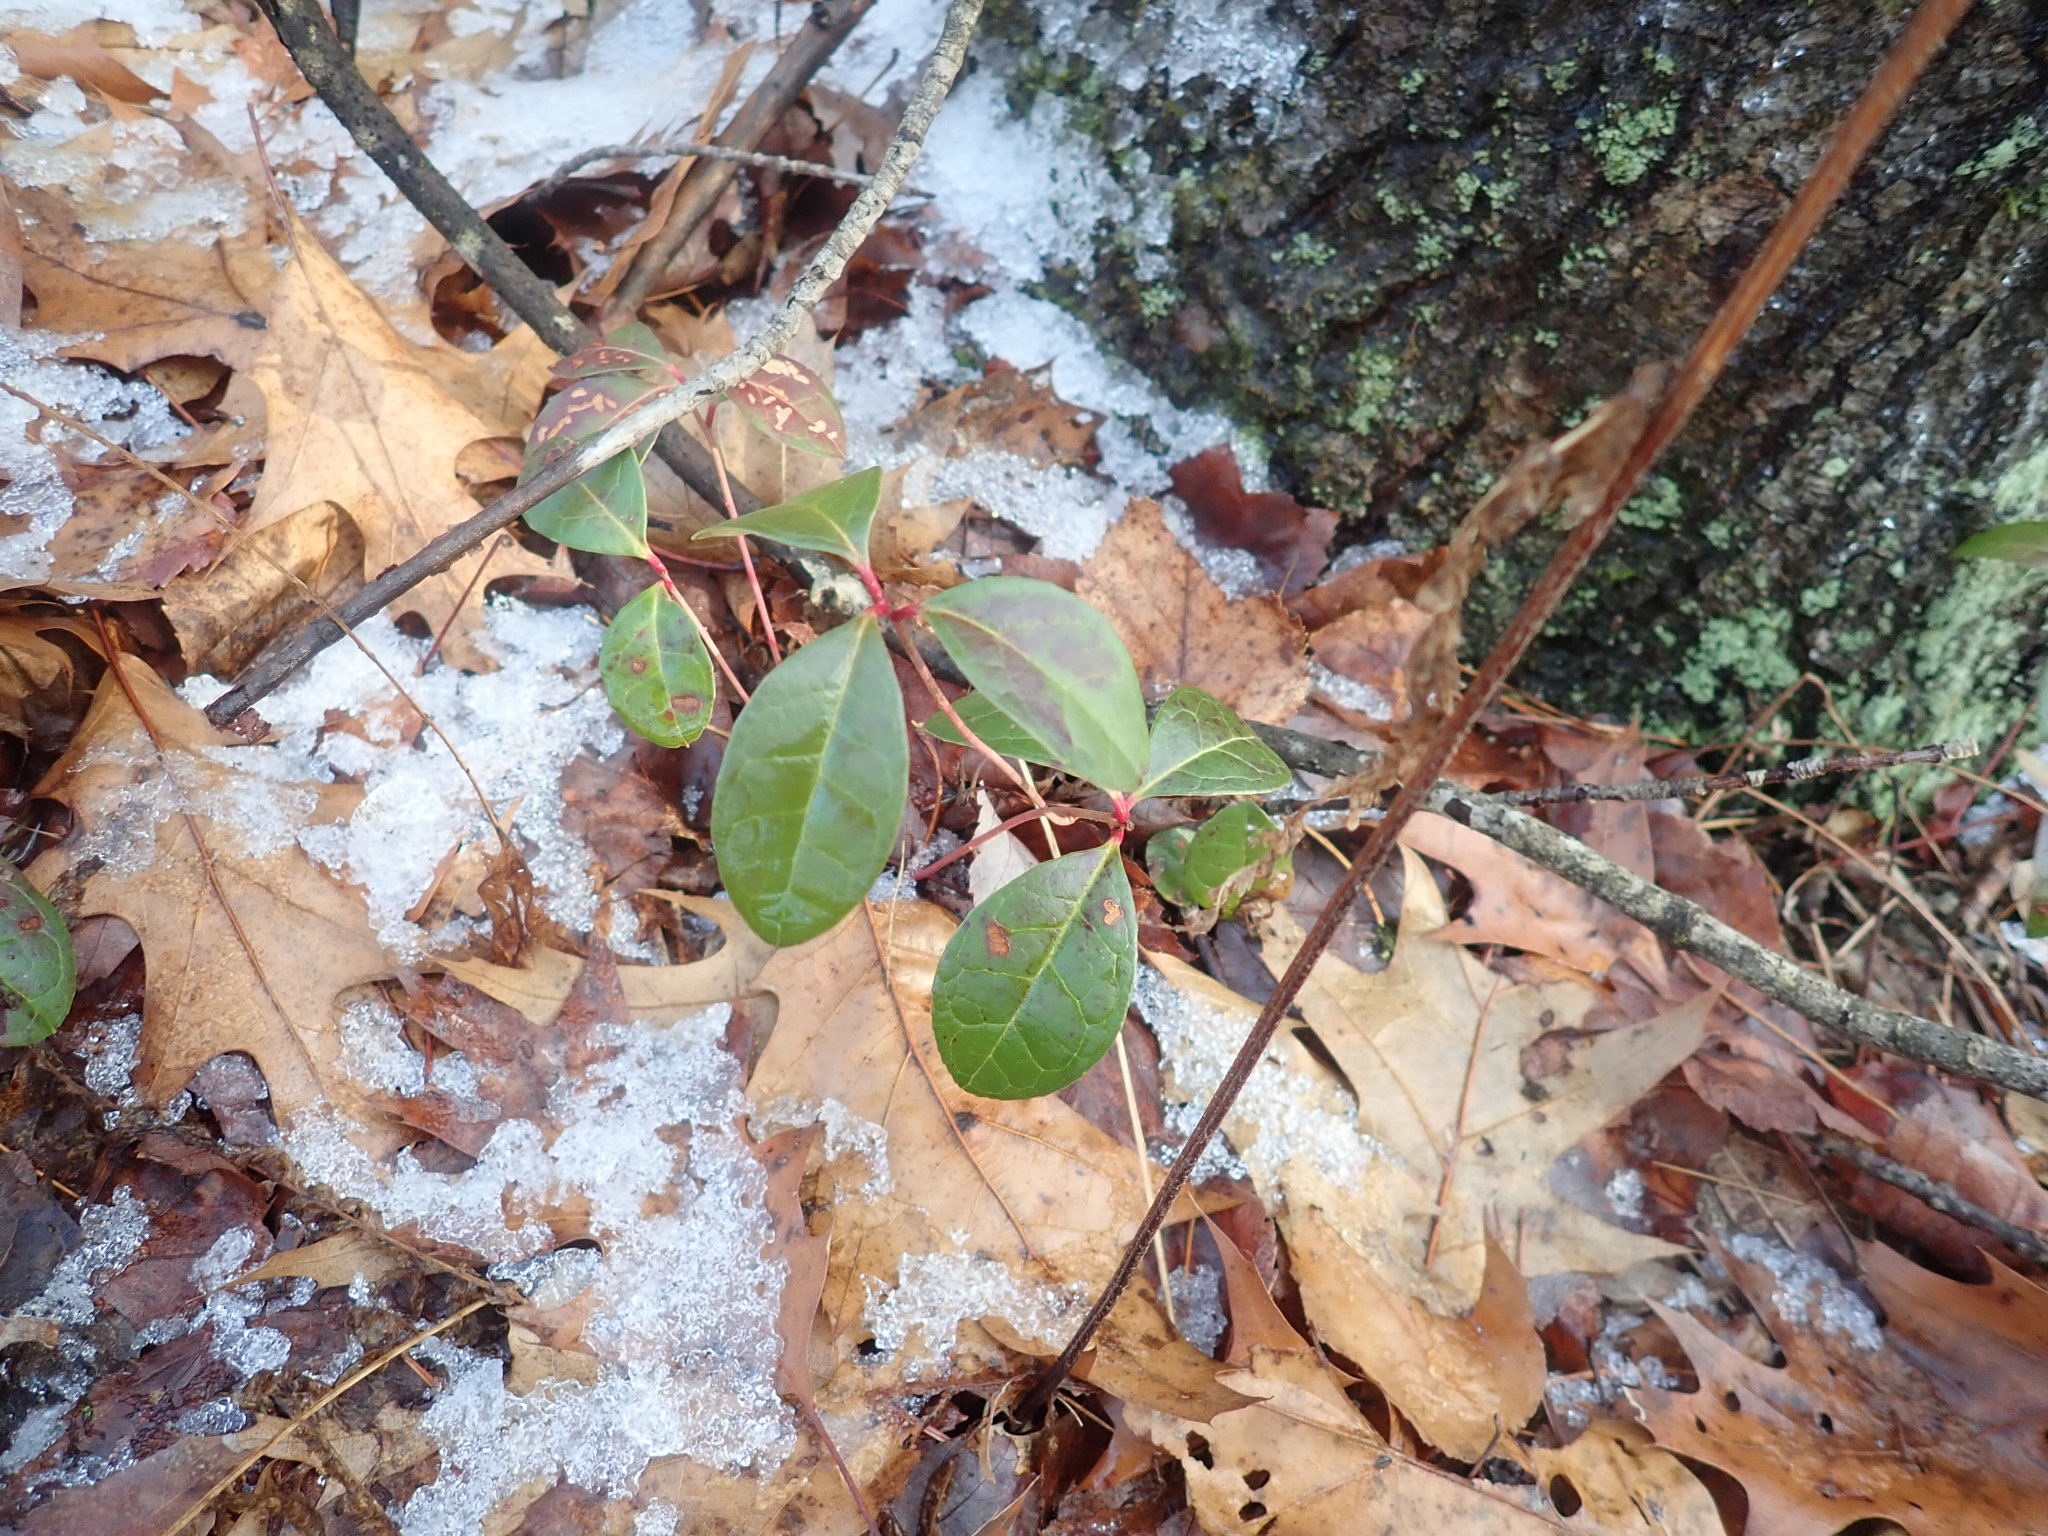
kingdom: Plantae
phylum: Tracheophyta
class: Magnoliopsida
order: Ericales
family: Ericaceae
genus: Gaultheria
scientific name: Gaultheria procumbens
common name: Checkerberry
